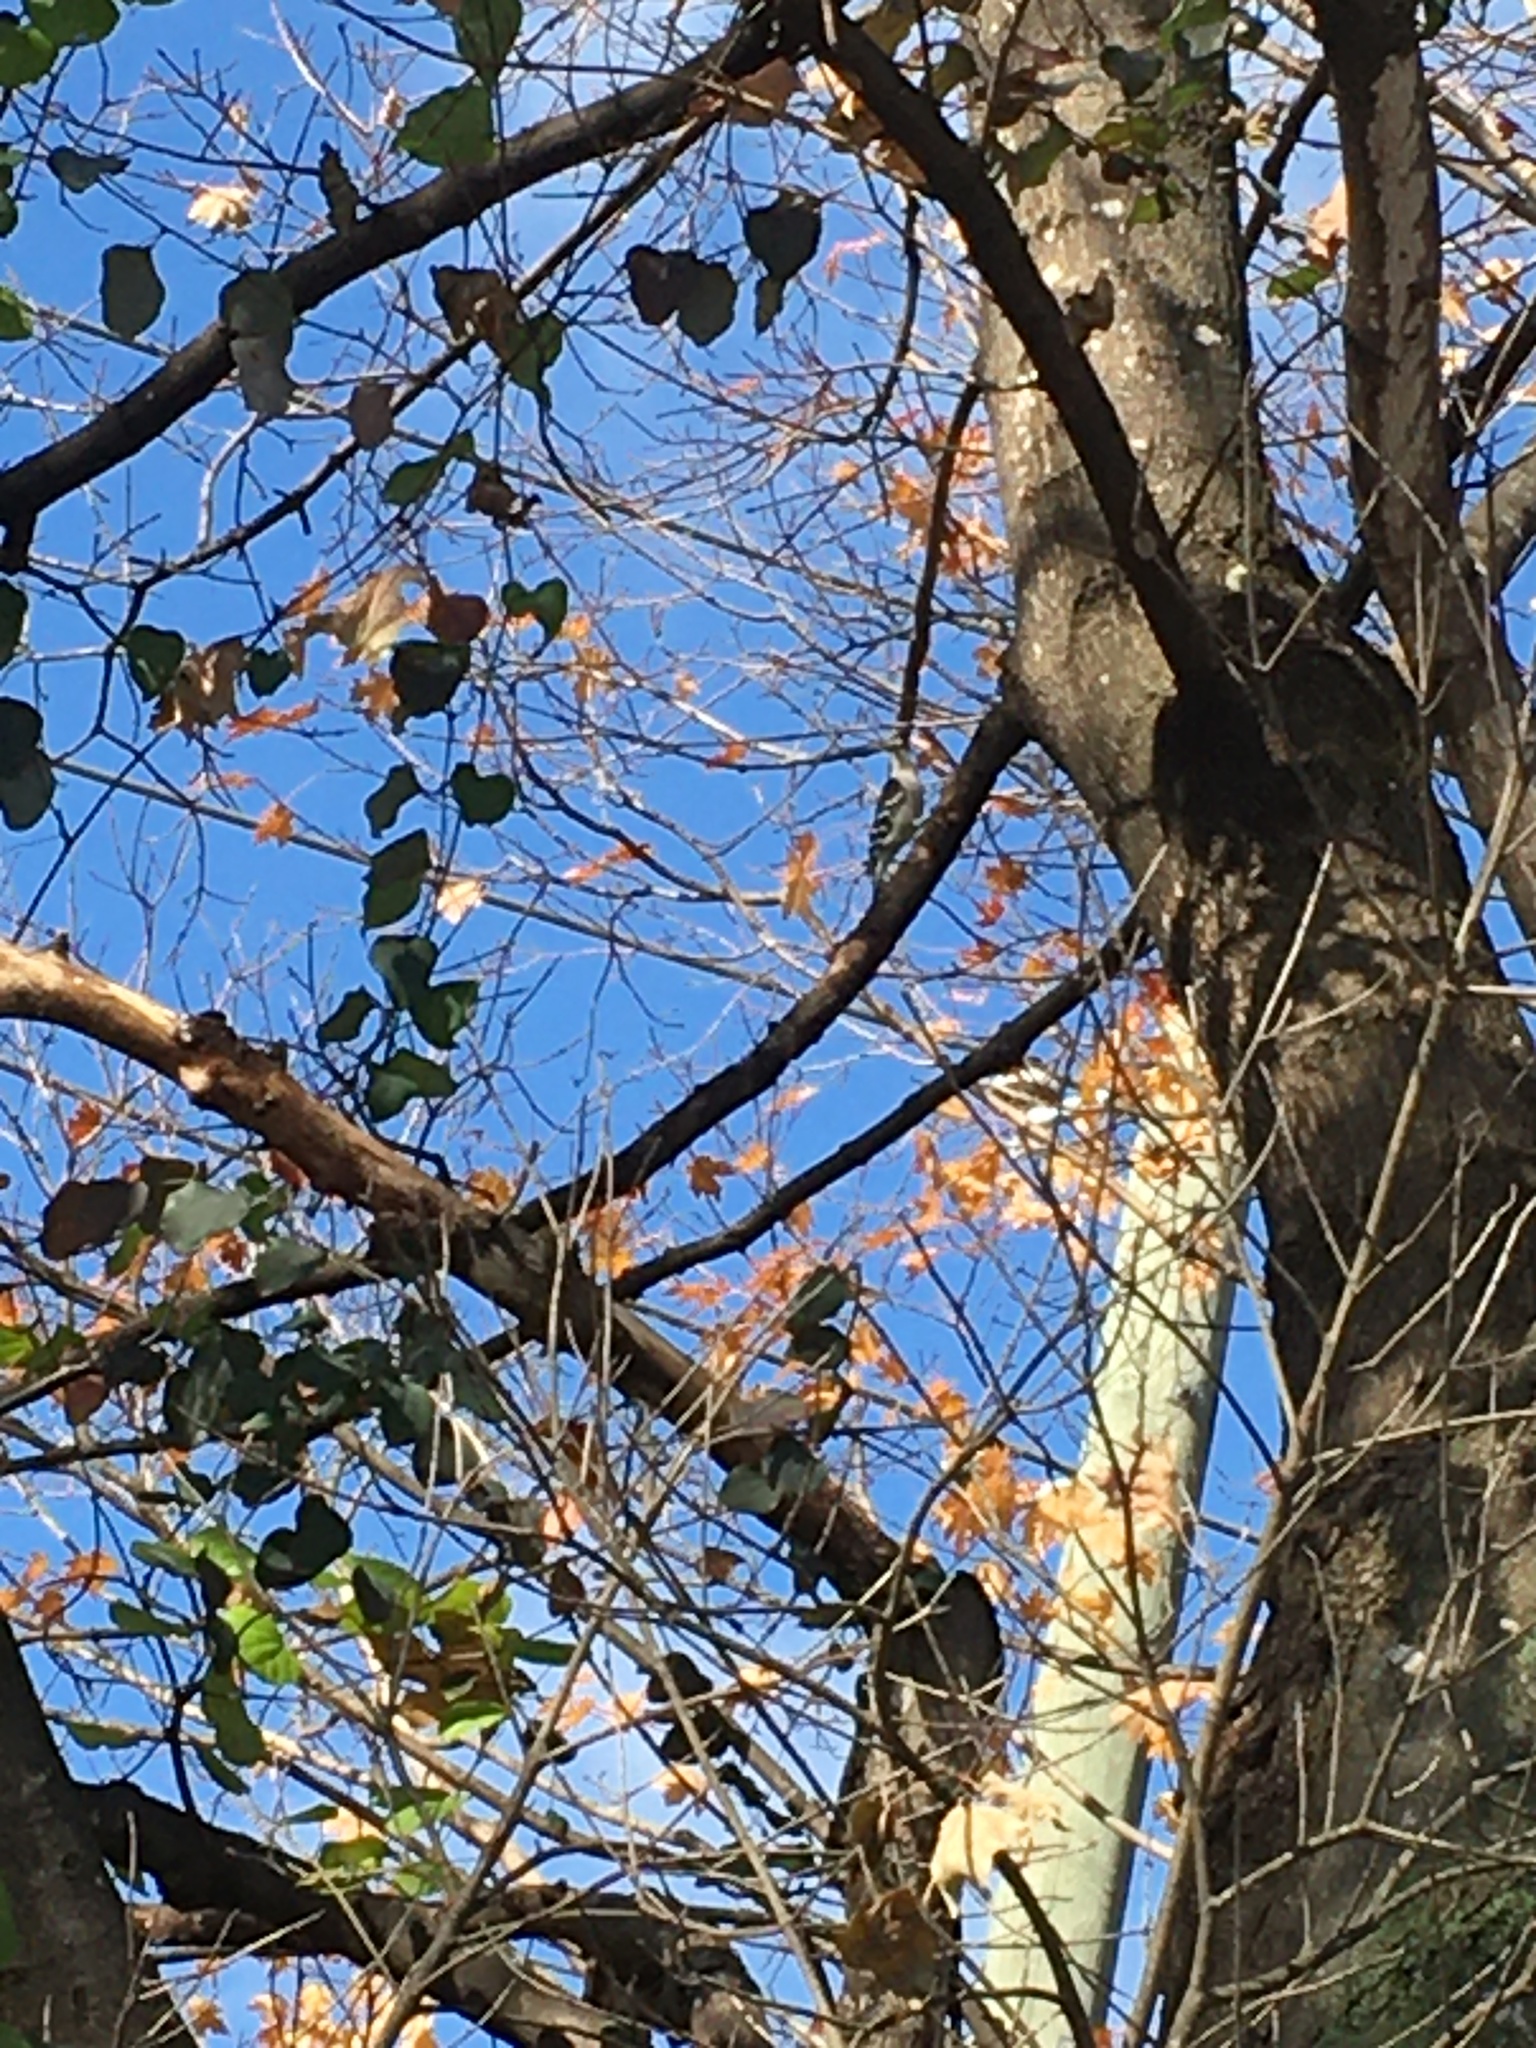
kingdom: Animalia
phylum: Chordata
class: Aves
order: Piciformes
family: Picidae
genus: Dryobates
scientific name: Dryobates pubescens
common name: Downy woodpecker
